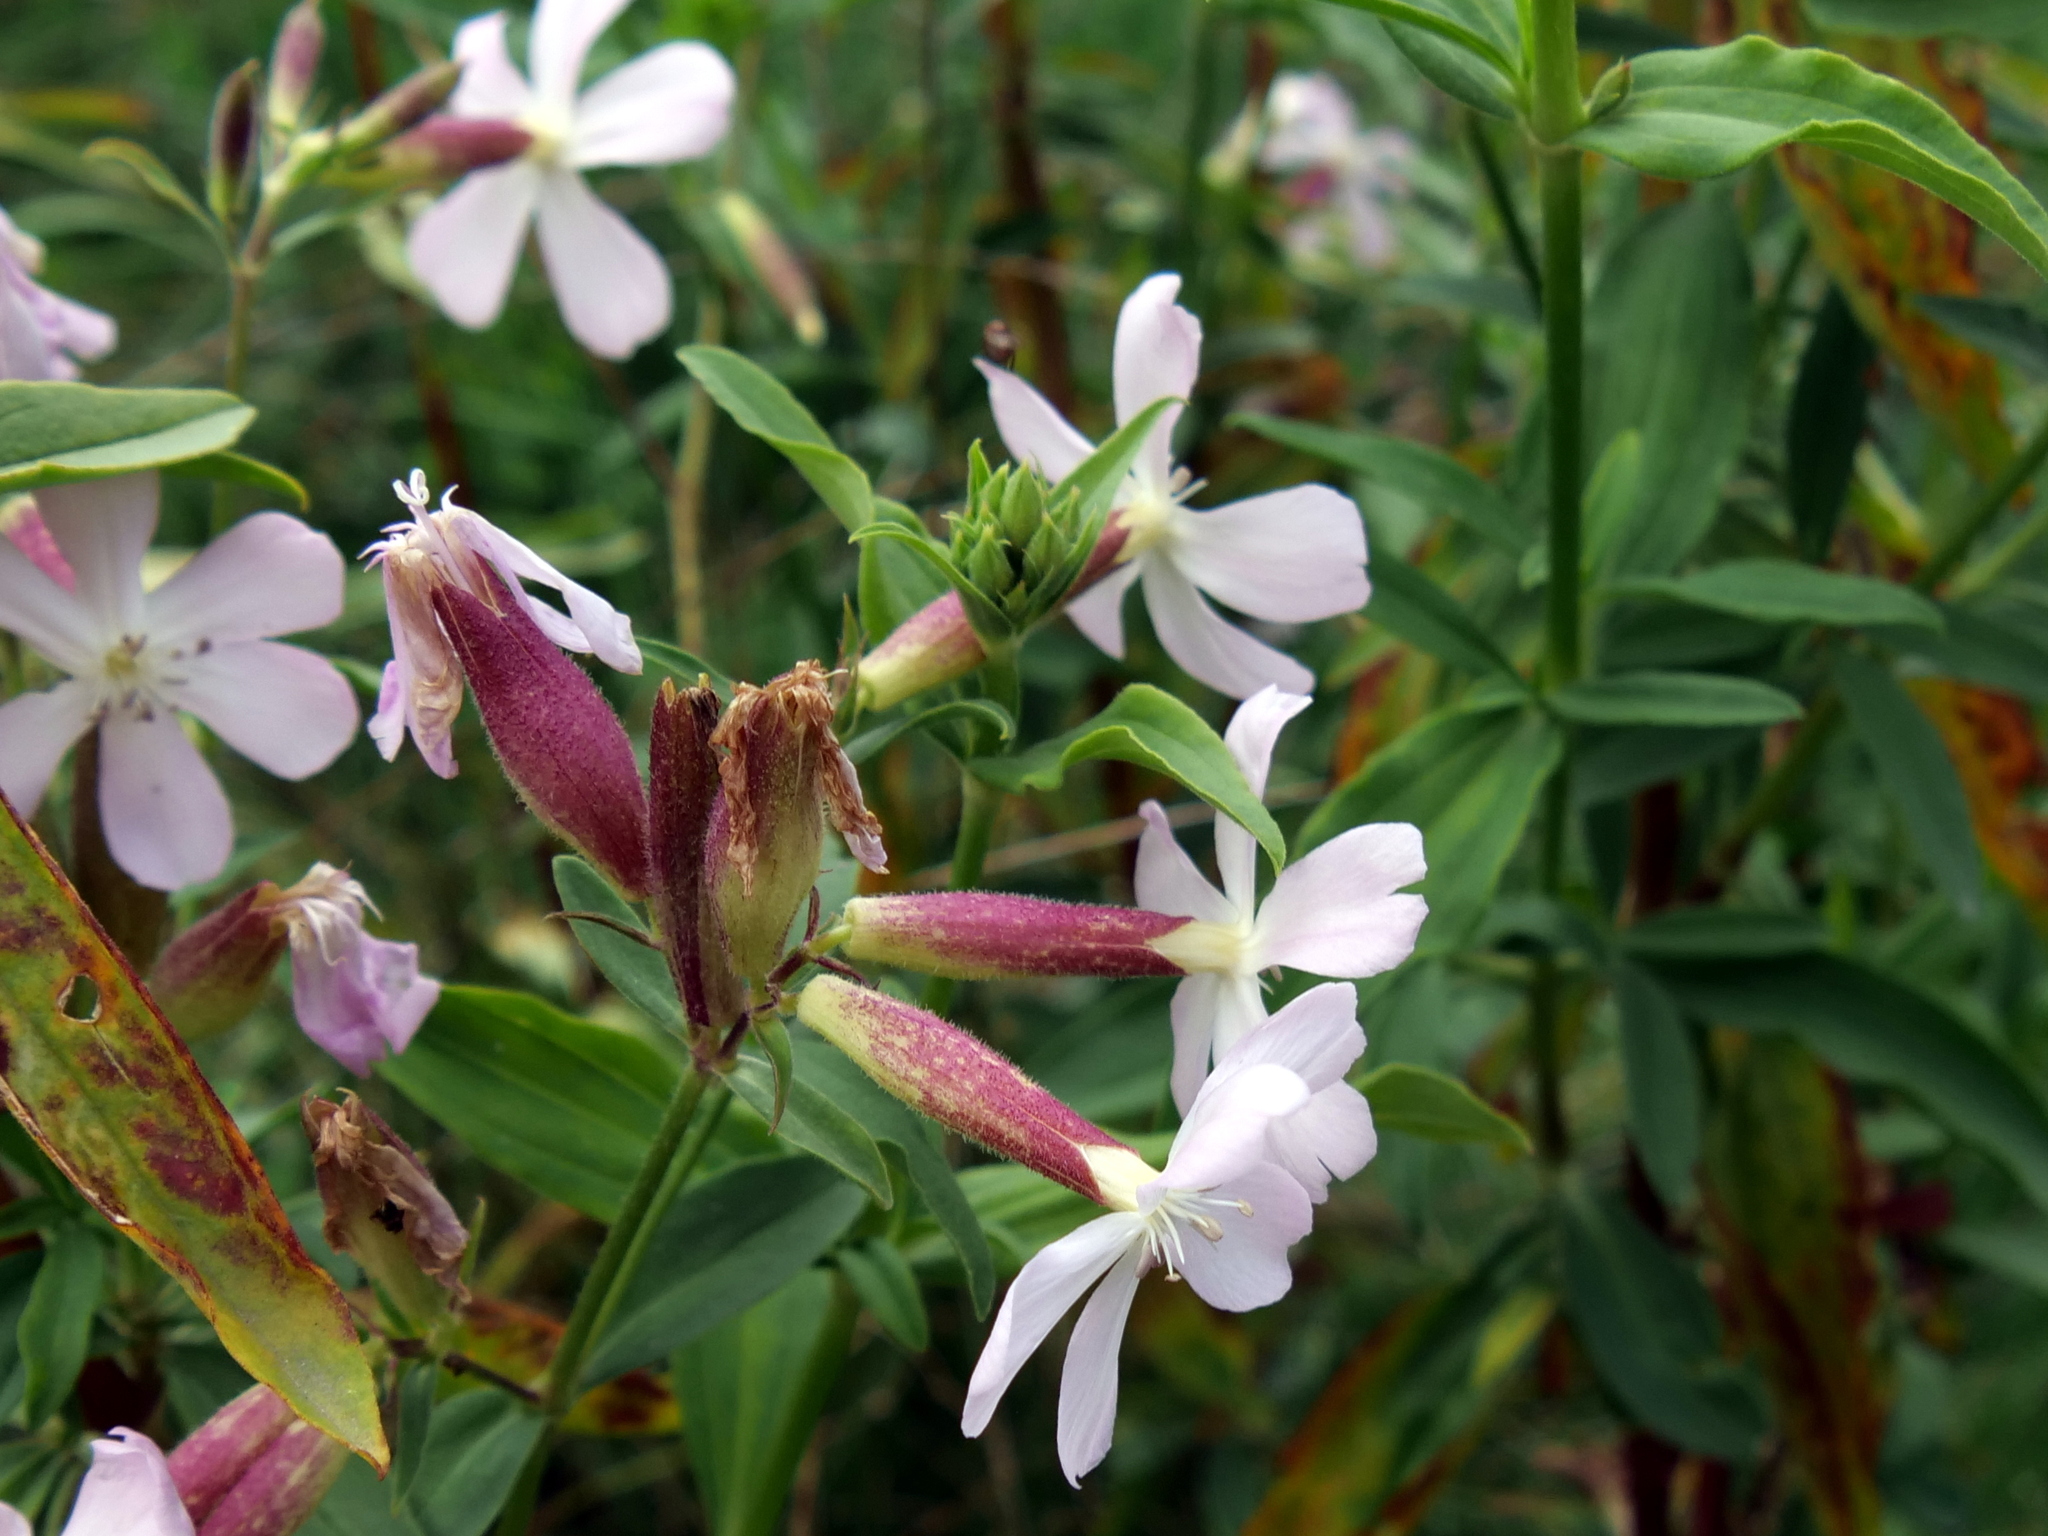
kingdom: Plantae
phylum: Tracheophyta
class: Magnoliopsida
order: Caryophyllales
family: Caryophyllaceae
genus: Saponaria
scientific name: Saponaria officinalis
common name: Soapwort
